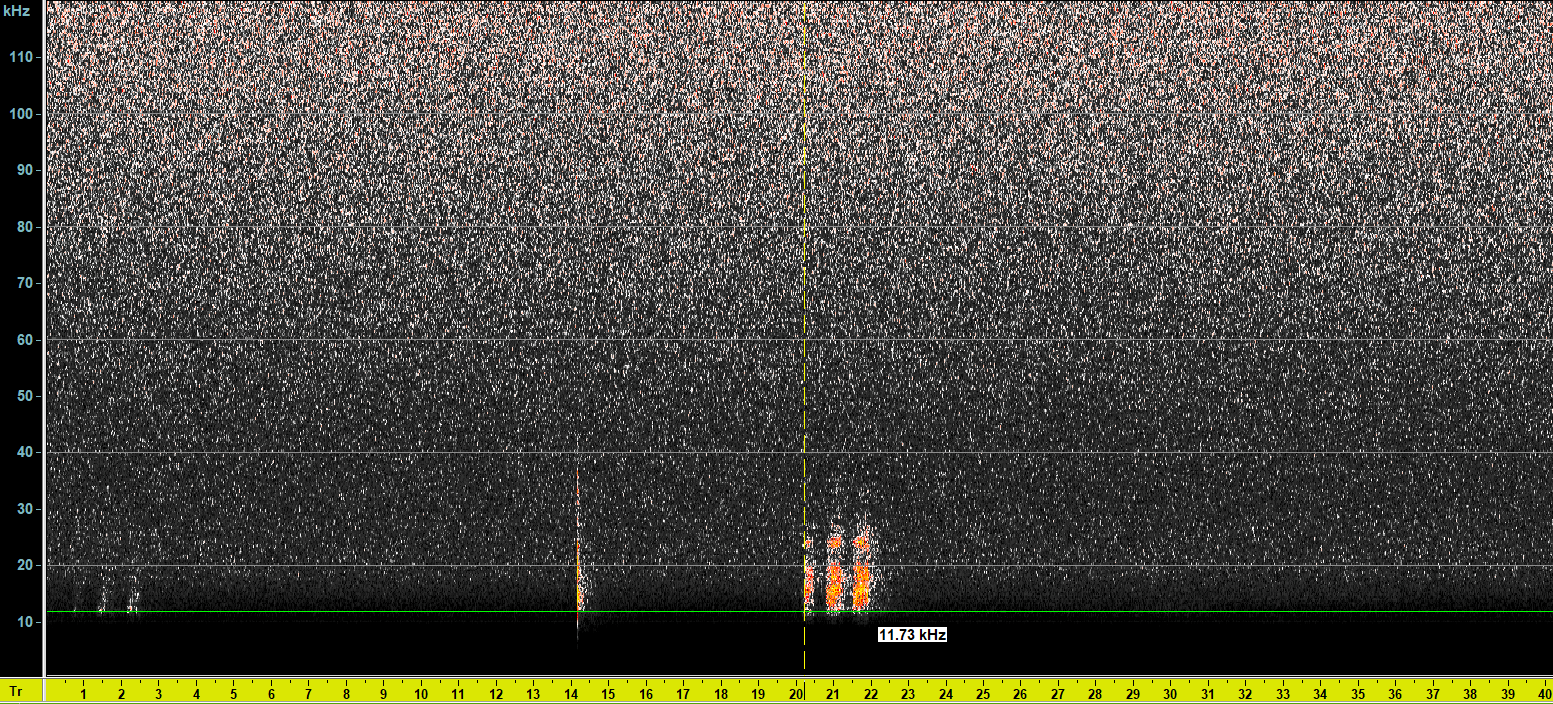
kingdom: Animalia
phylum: Arthropoda
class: Insecta
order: Orthoptera
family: Tettigoniidae
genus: Pholidoptera
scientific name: Pholidoptera griseoaptera
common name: Dark bush-cricket
